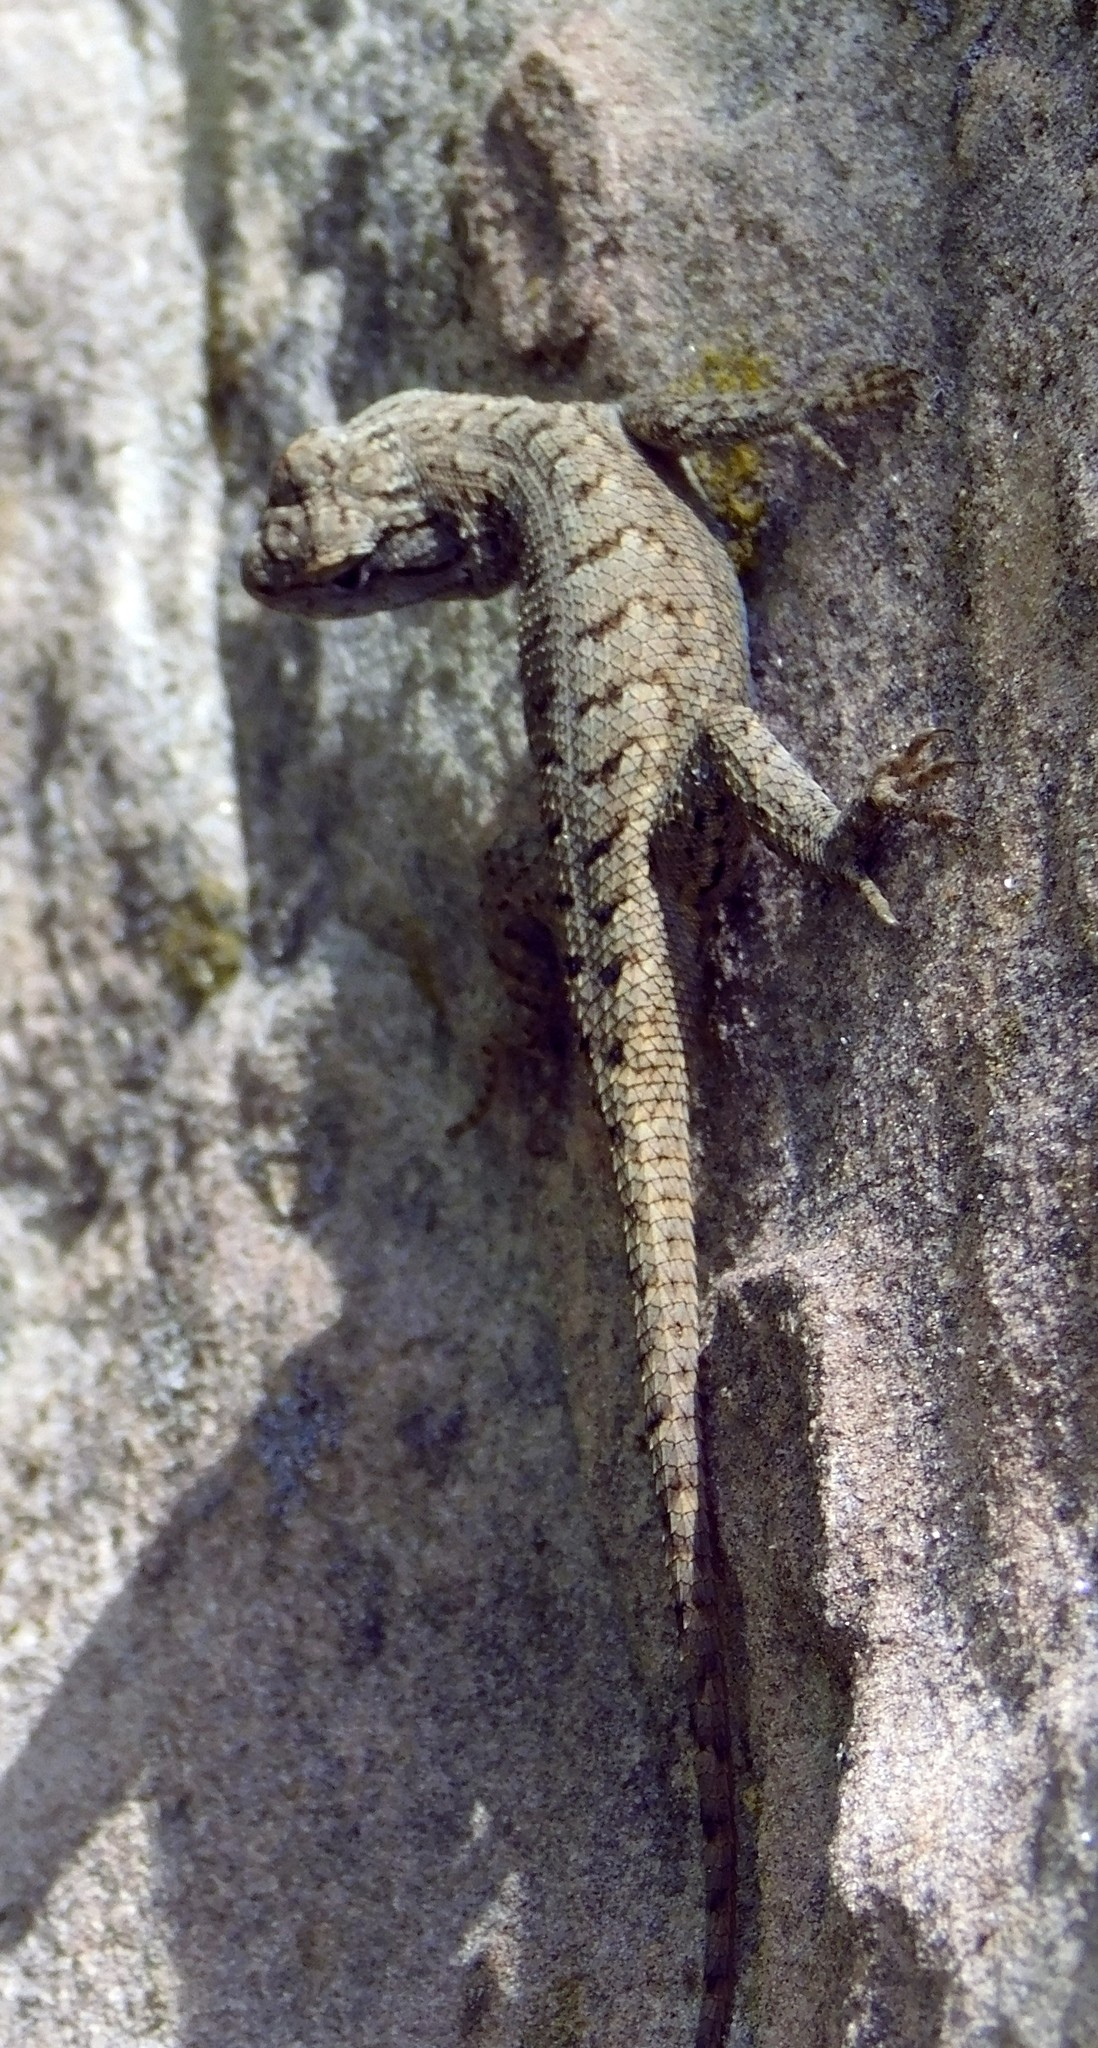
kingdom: Animalia
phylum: Chordata
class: Squamata
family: Phrynosomatidae
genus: Sceloporus
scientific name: Sceloporus tristichus
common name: Plateau fence lizard
